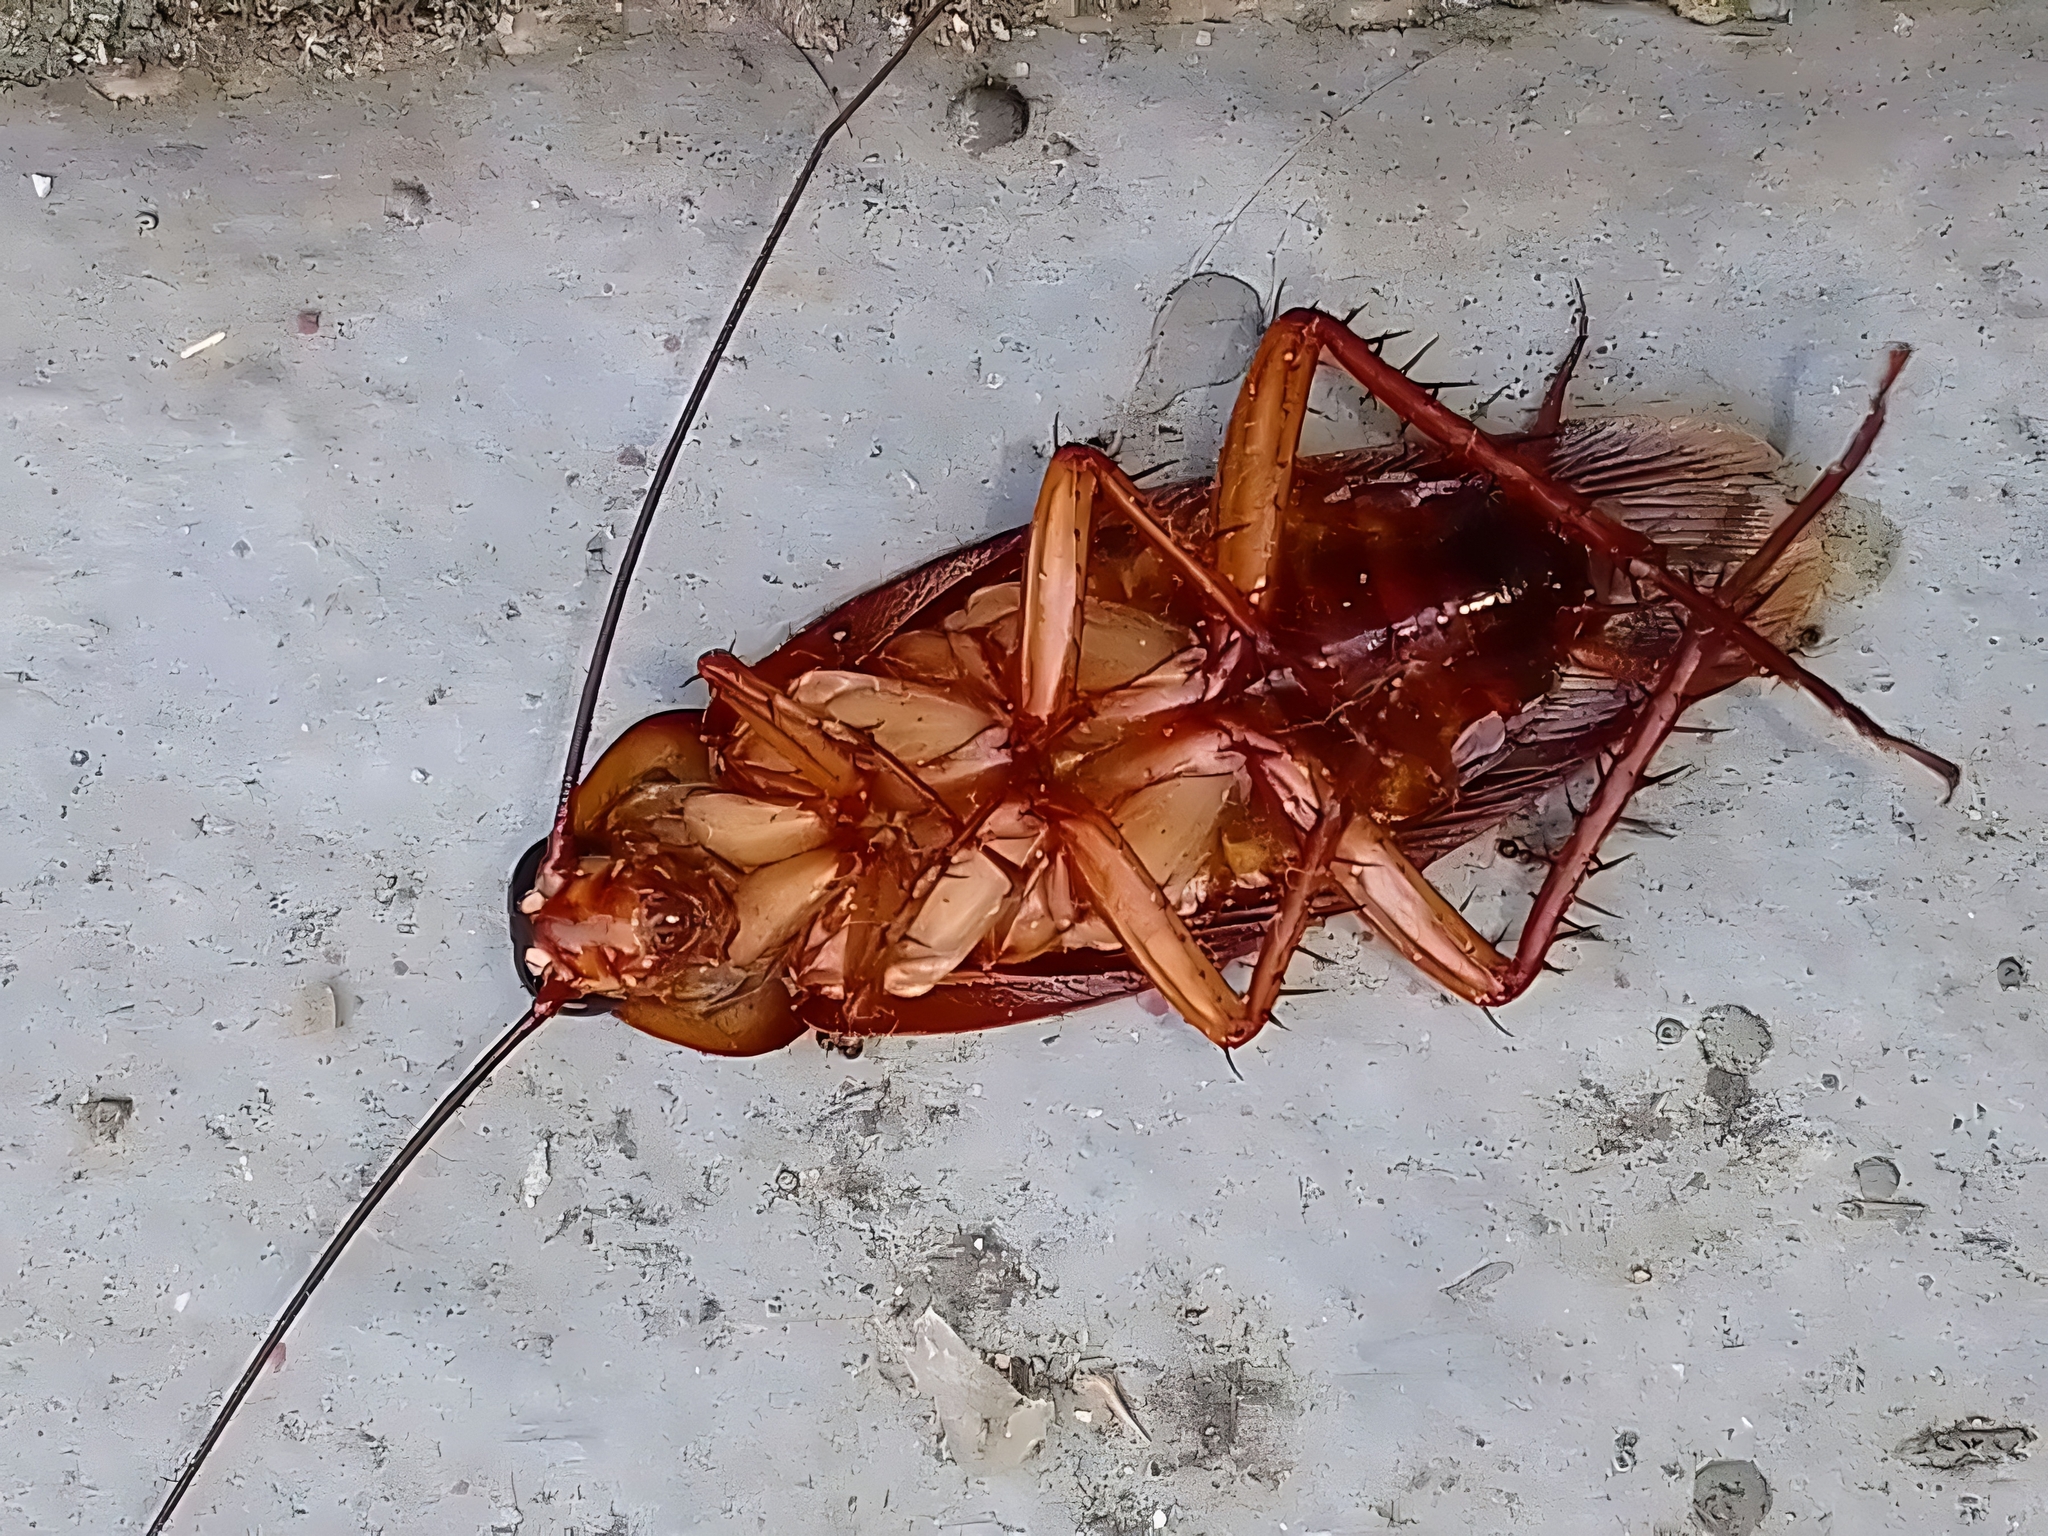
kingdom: Animalia
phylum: Arthropoda
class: Insecta
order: Blattodea
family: Blattidae
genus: Periplaneta
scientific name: Periplaneta americana
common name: American cockroach
